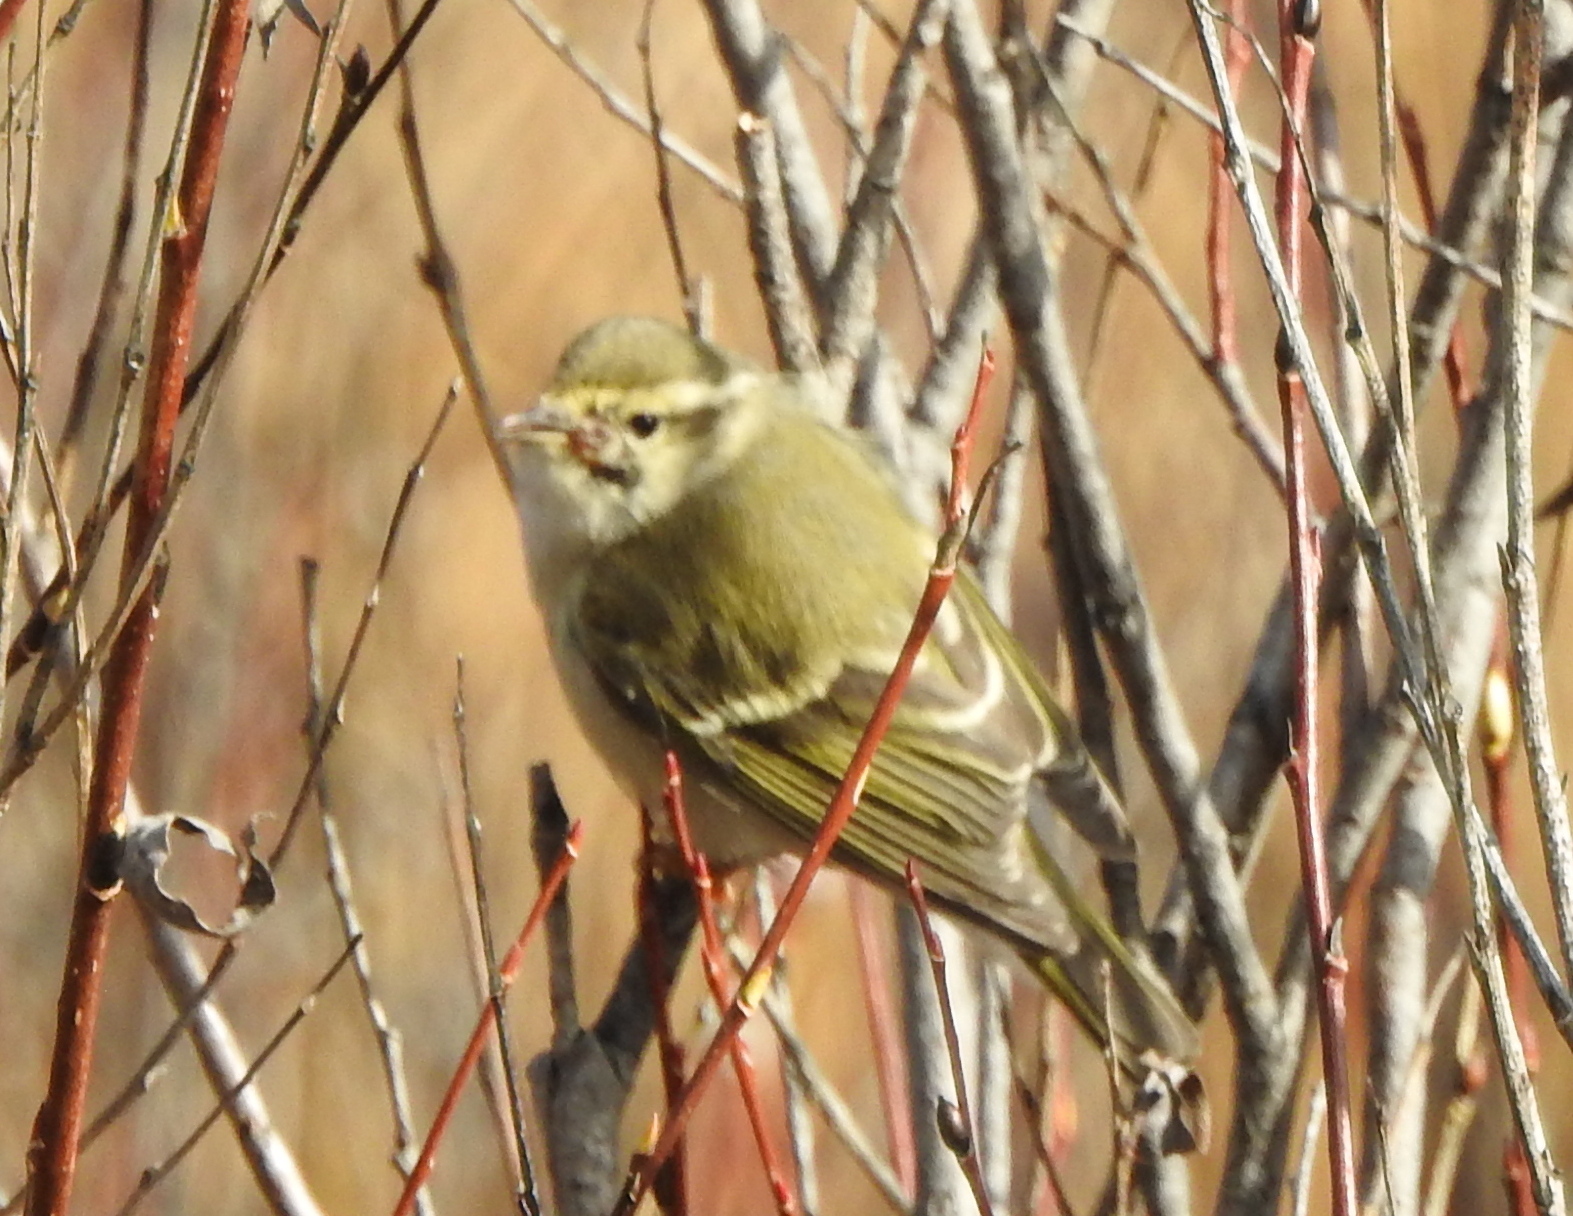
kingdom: Animalia
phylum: Chordata
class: Aves
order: Passeriformes
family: Phylloscopidae
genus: Phylloscopus
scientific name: Phylloscopus inornatus
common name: Yellow-browed warbler
